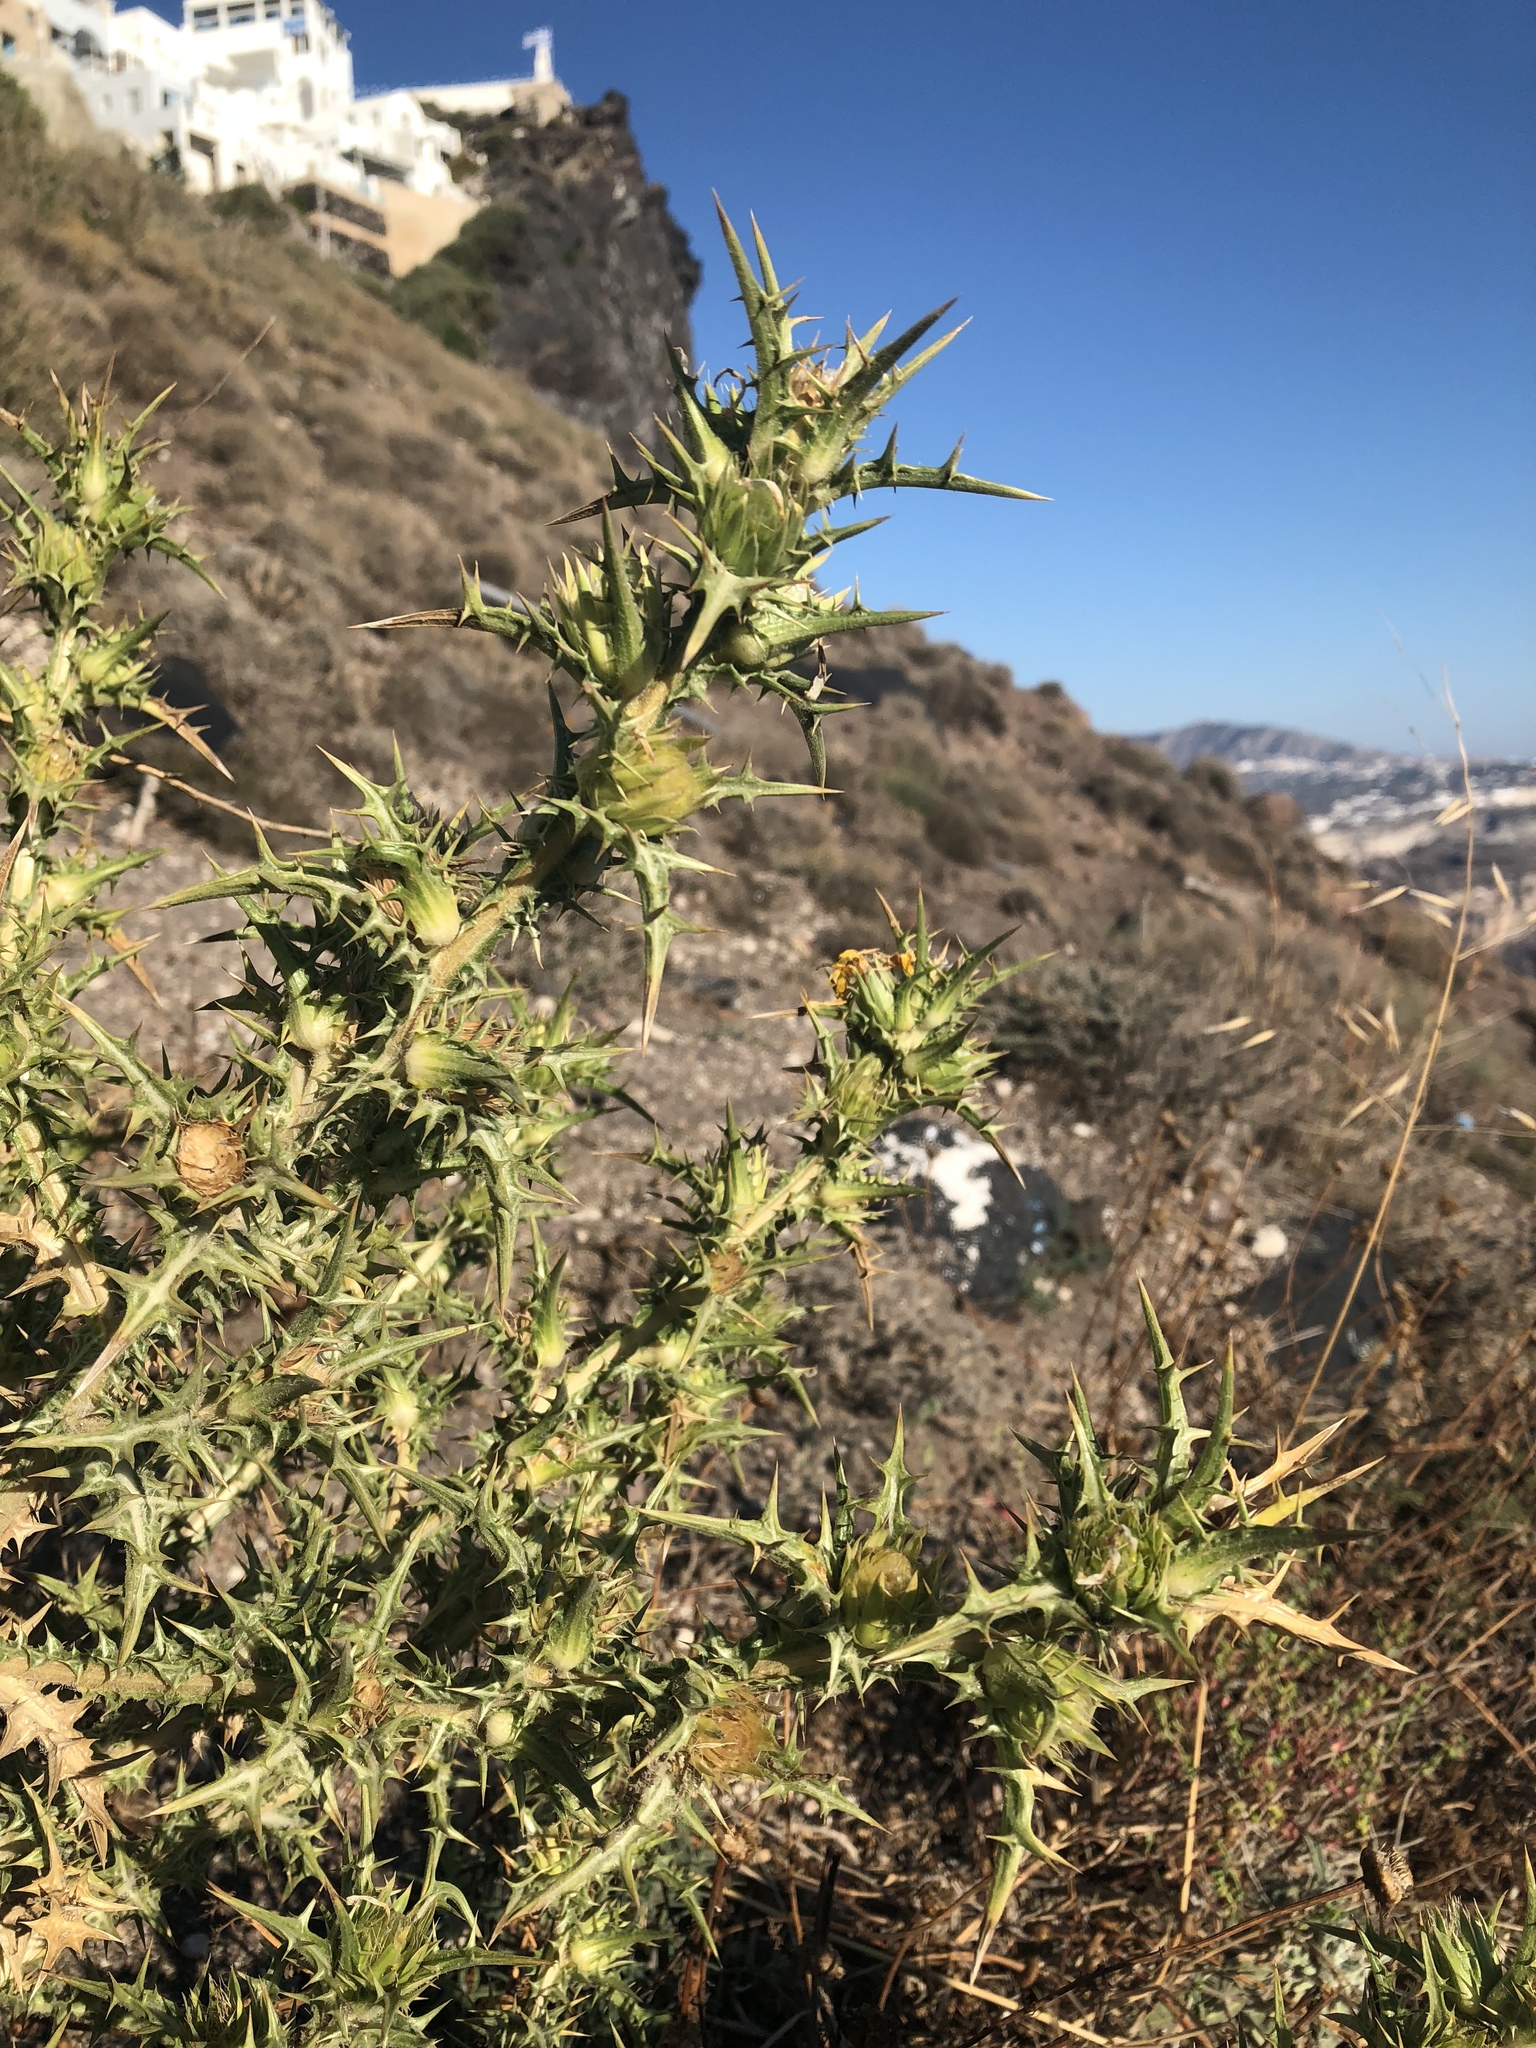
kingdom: Plantae
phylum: Tracheophyta
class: Magnoliopsida
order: Asterales
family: Asteraceae
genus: Carlina
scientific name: Carlina corymbosa
